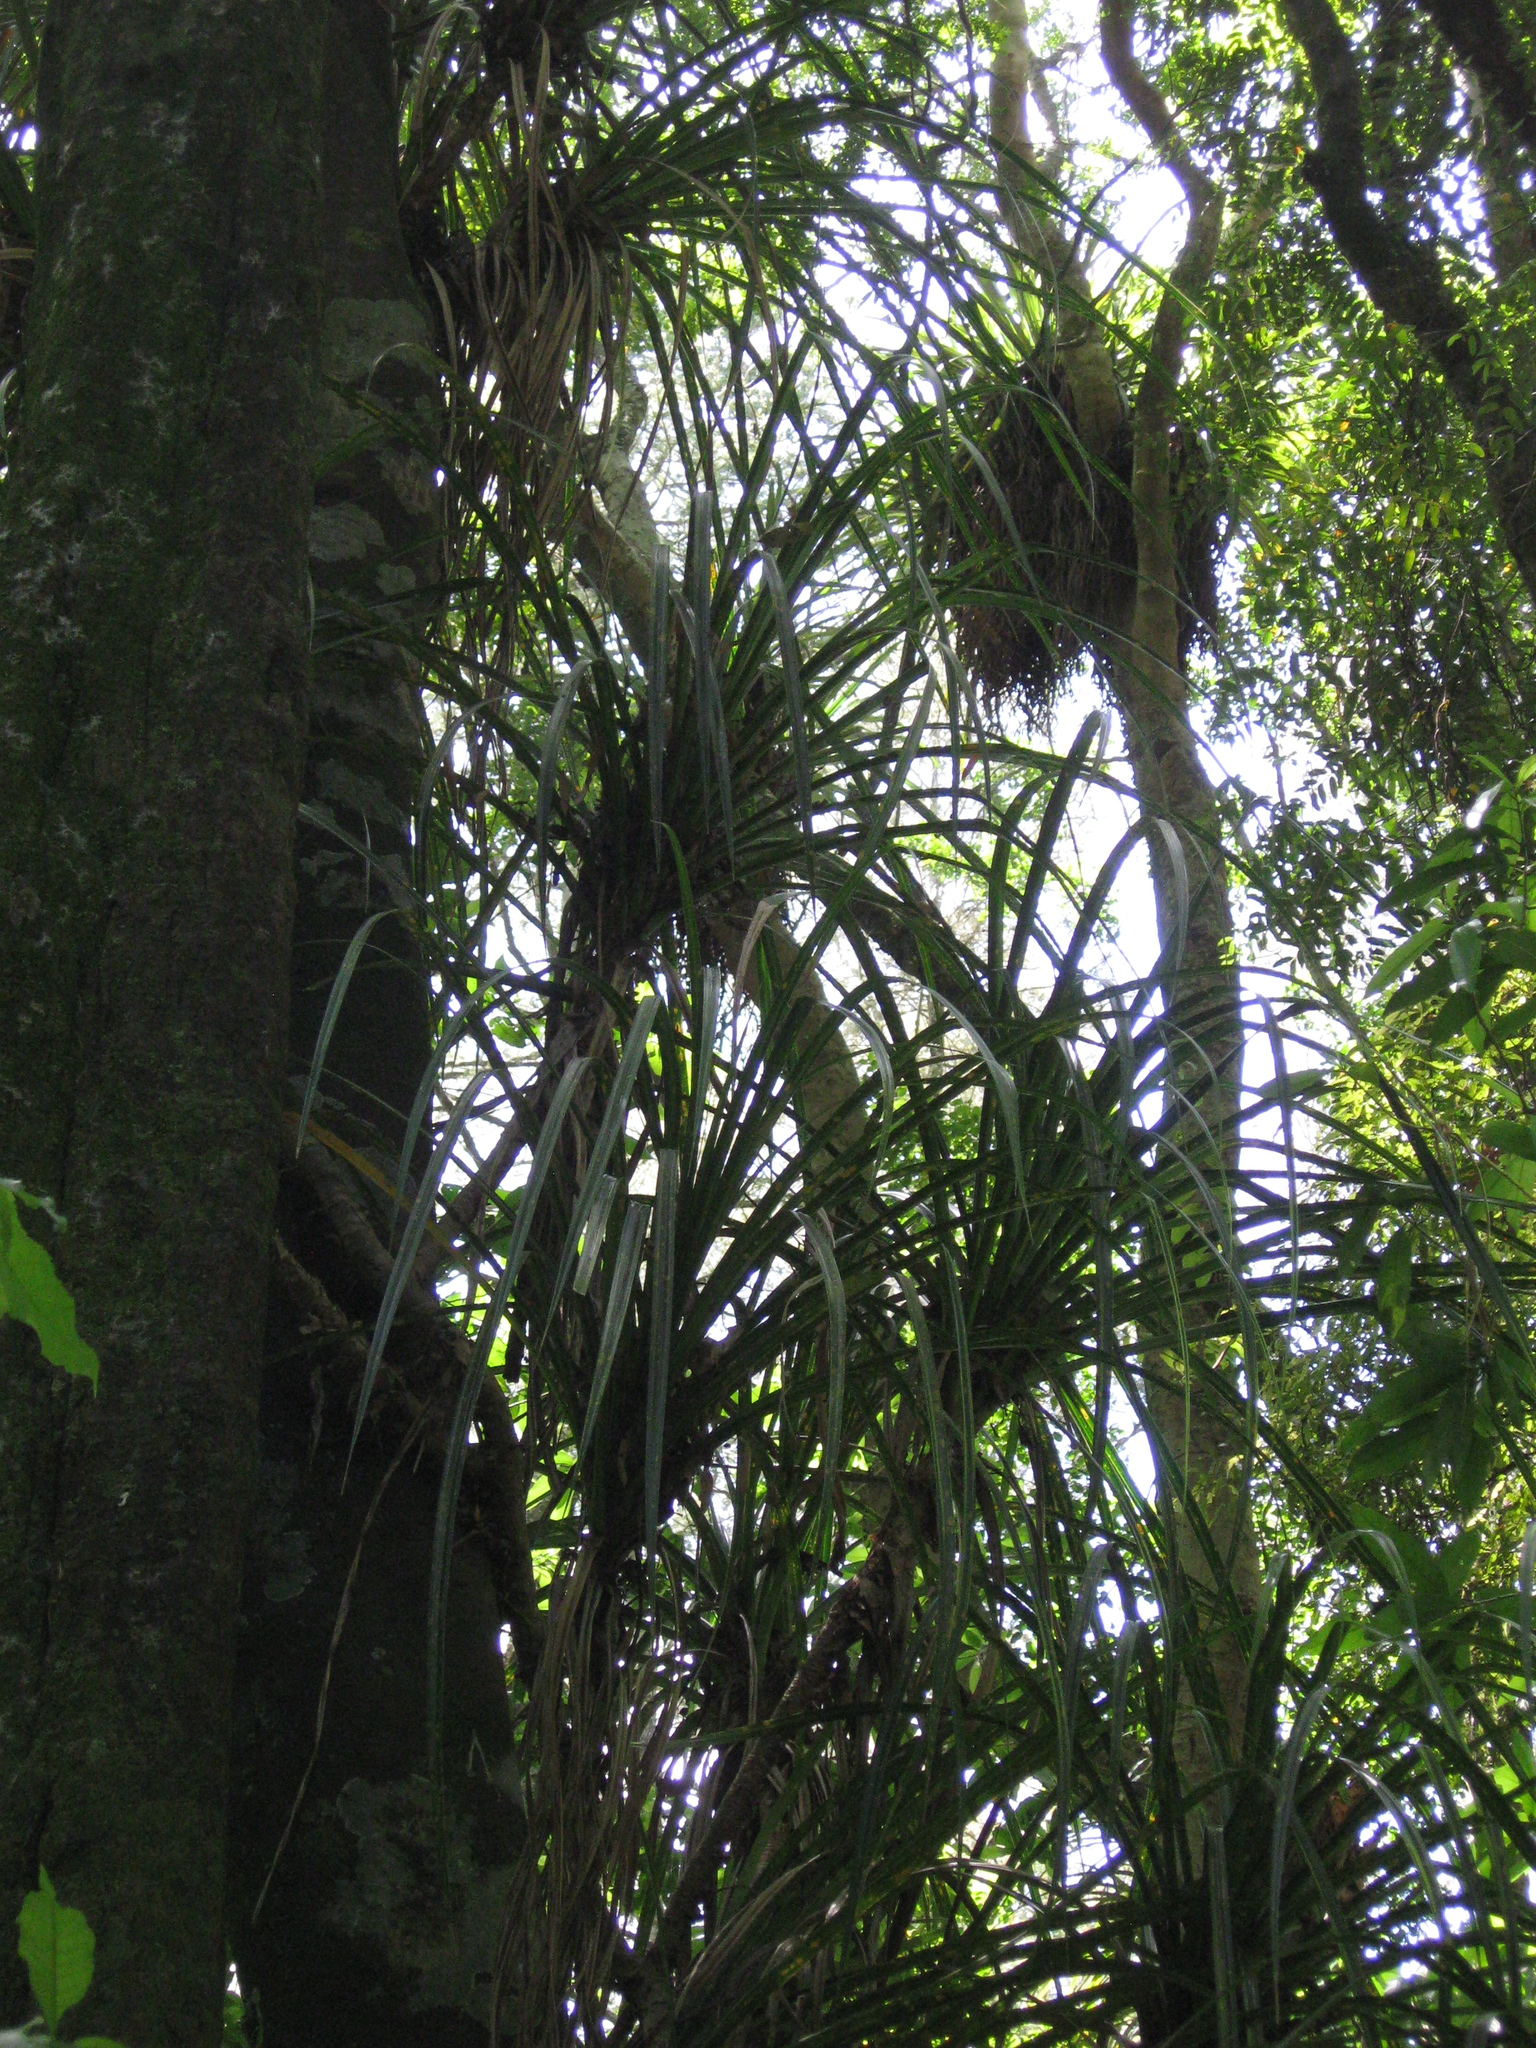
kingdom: Plantae
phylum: Tracheophyta
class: Liliopsida
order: Pandanales
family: Pandanaceae
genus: Freycinetia
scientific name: Freycinetia banksii
